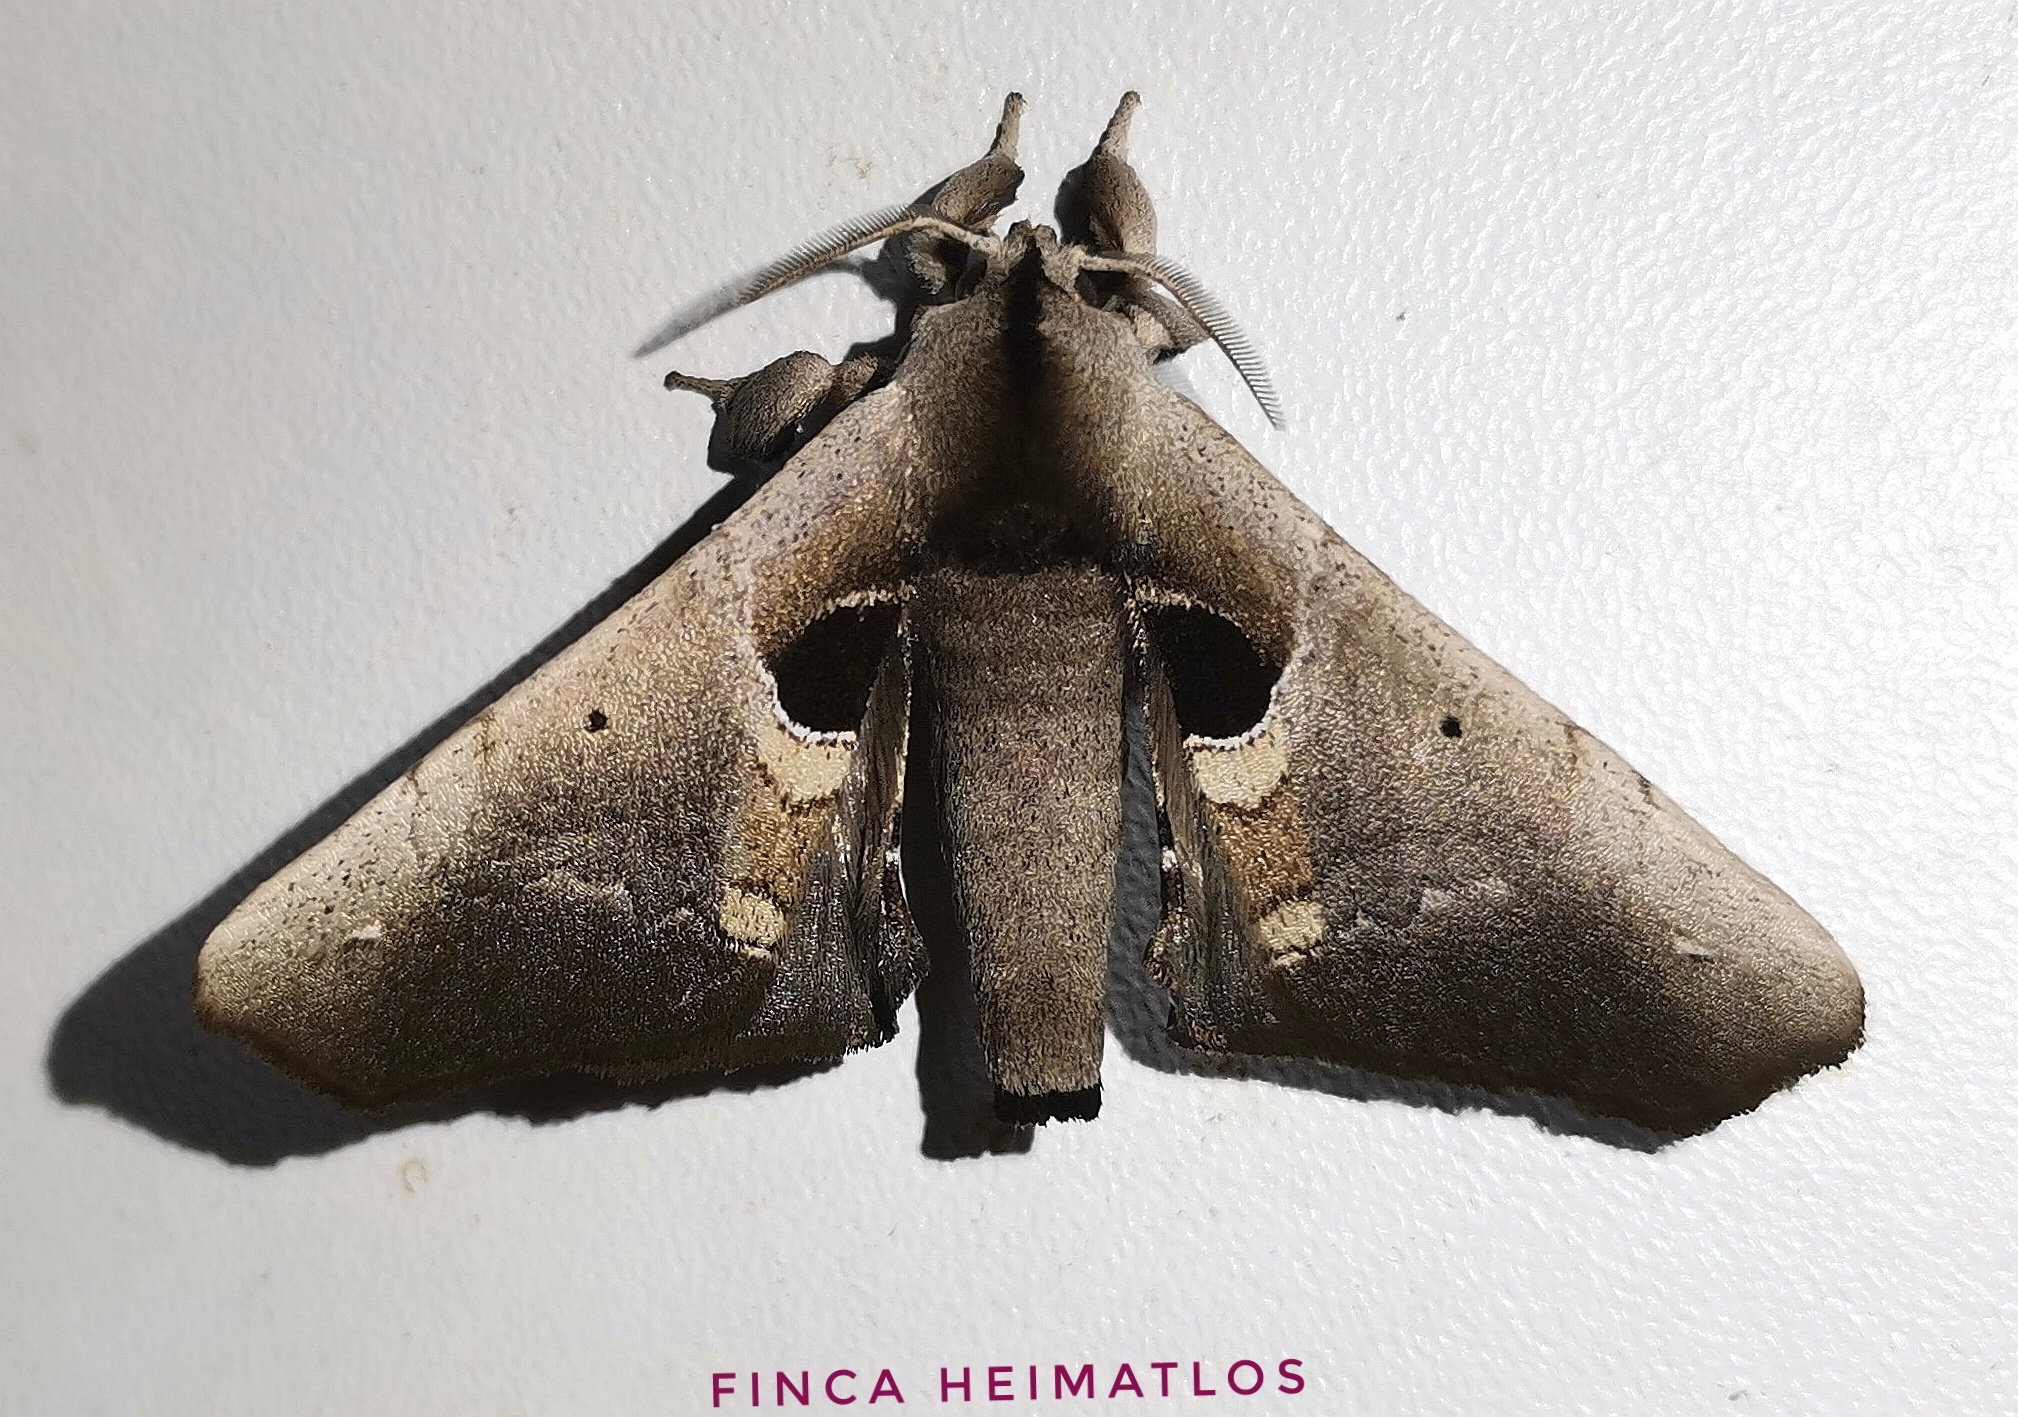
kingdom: Animalia
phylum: Arthropoda
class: Insecta
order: Lepidoptera
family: Apatelodidae
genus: Hygrochroa
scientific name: Hygrochroa Apatelodes cirna
